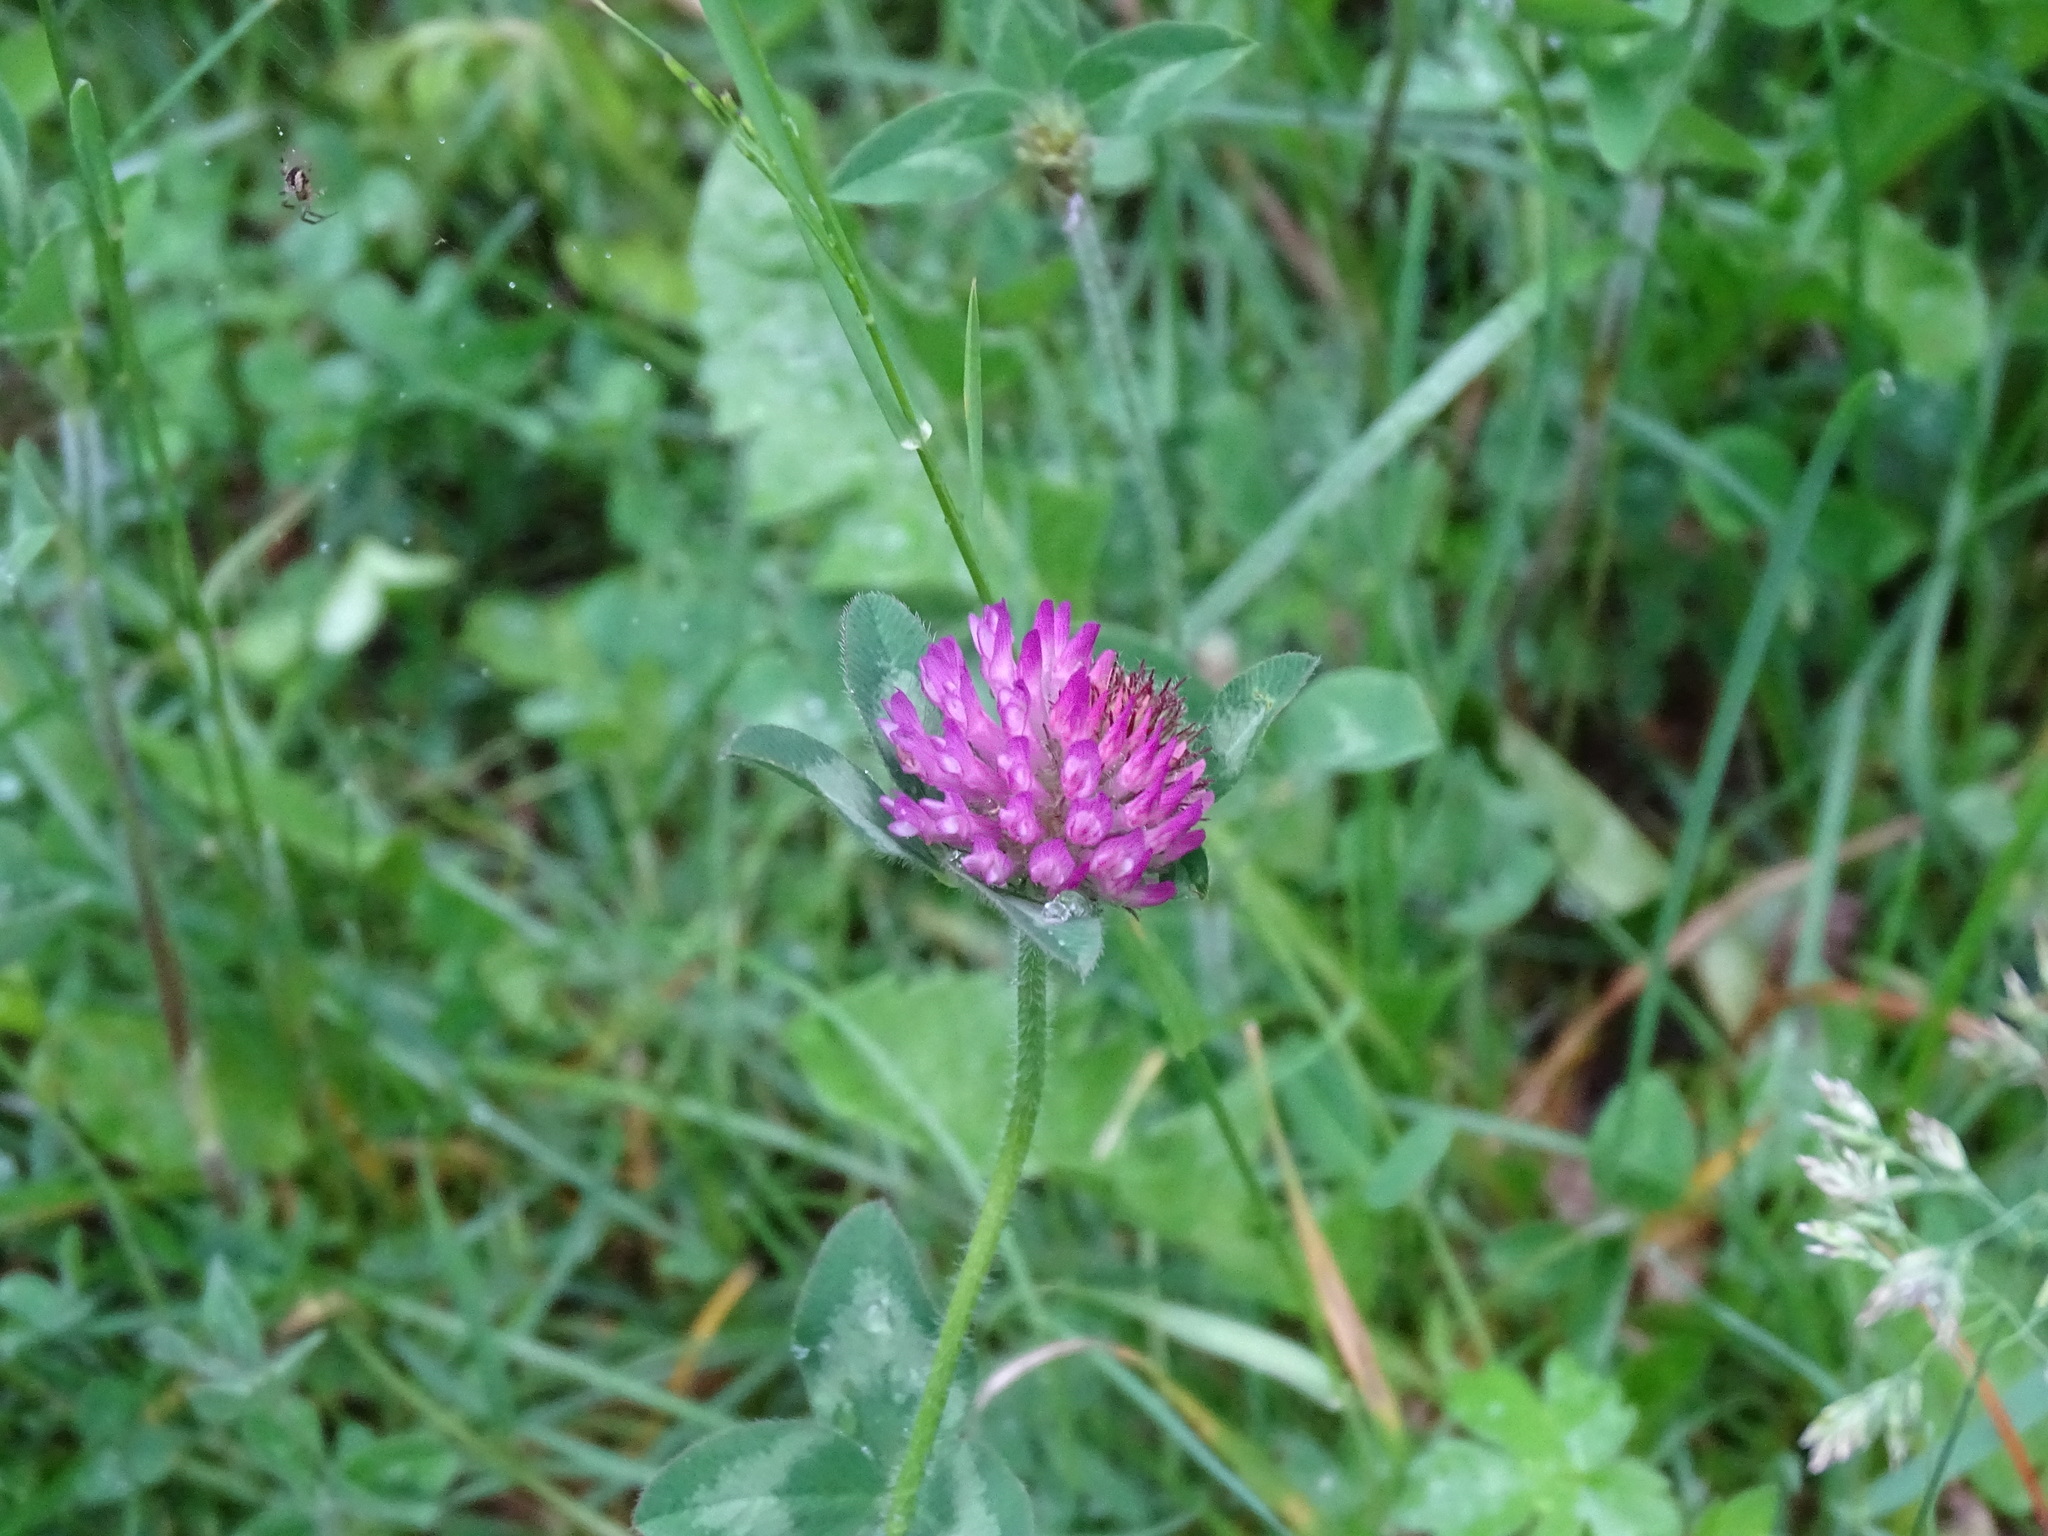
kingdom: Plantae
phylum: Tracheophyta
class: Magnoliopsida
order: Fabales
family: Fabaceae
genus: Trifolium
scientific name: Trifolium pratense
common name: Red clover
